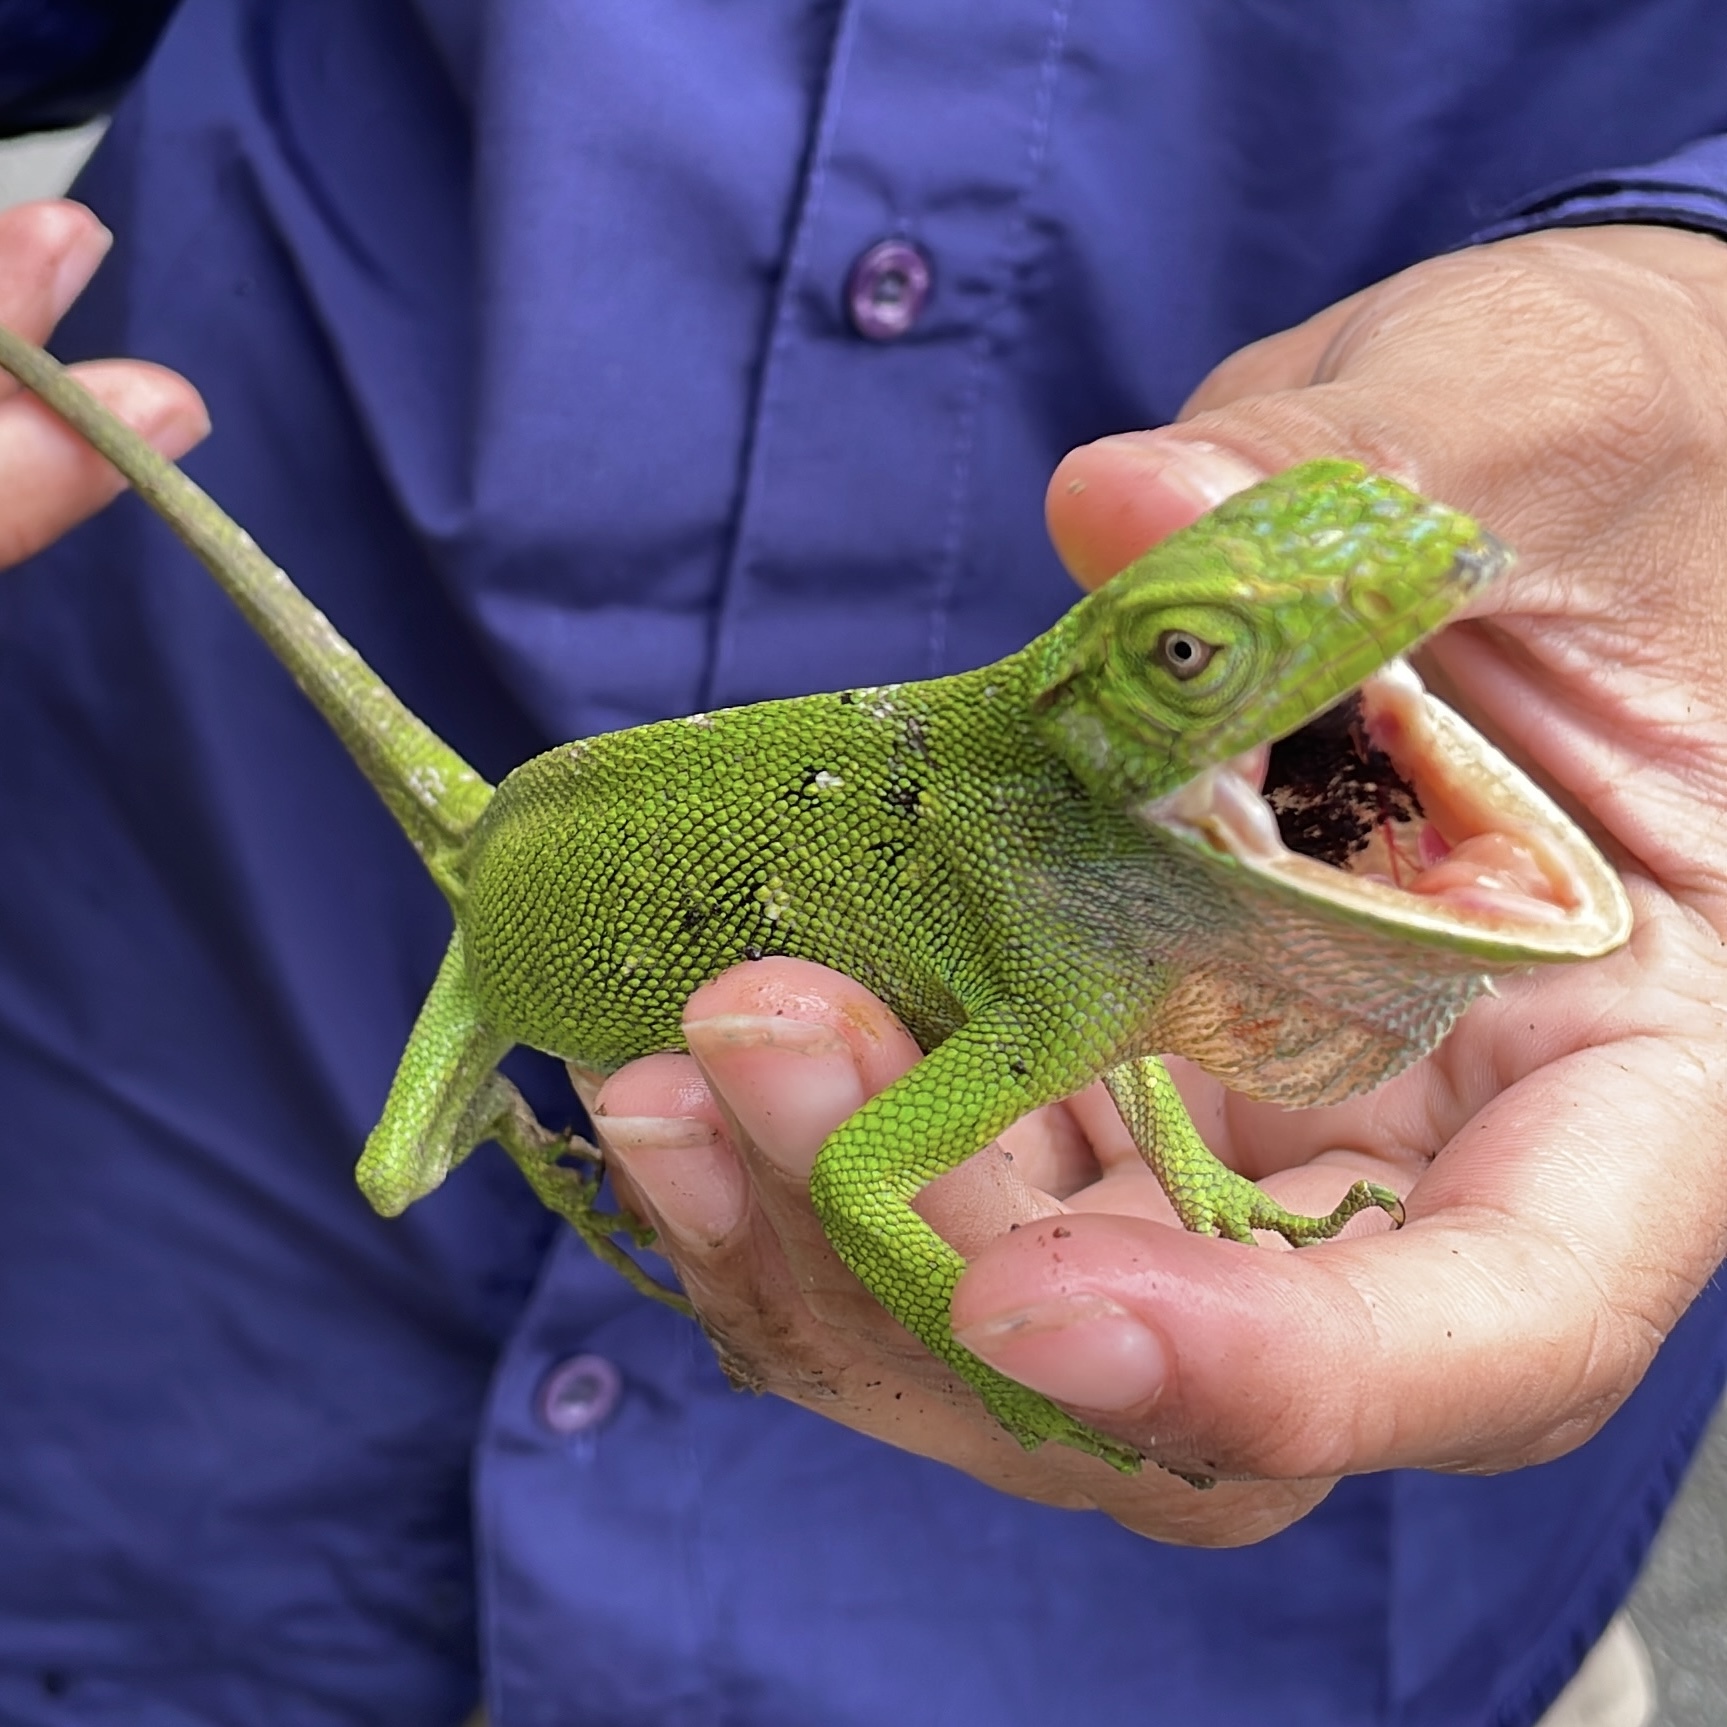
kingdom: Animalia
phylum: Chordata
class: Squamata
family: Polychrotidae
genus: Polychrus
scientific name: Polychrus auduboni
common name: Common monkey lizard
